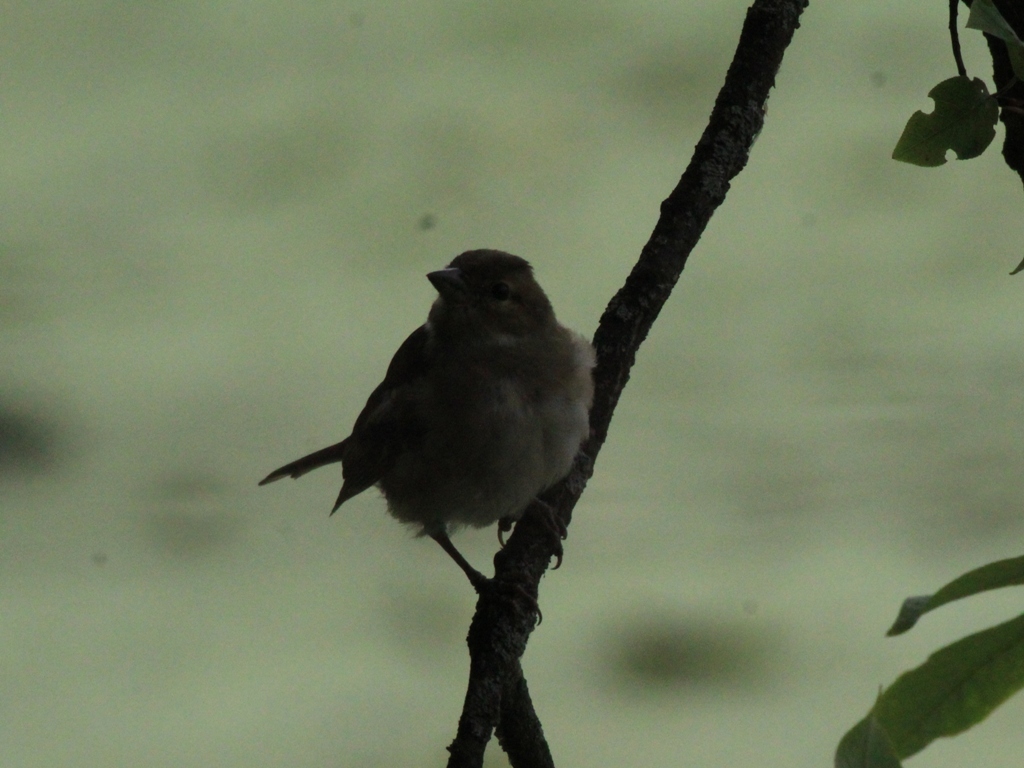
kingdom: Animalia
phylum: Chordata
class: Aves
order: Passeriformes
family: Fringillidae
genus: Fringilla
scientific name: Fringilla coelebs
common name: Common chaffinch
